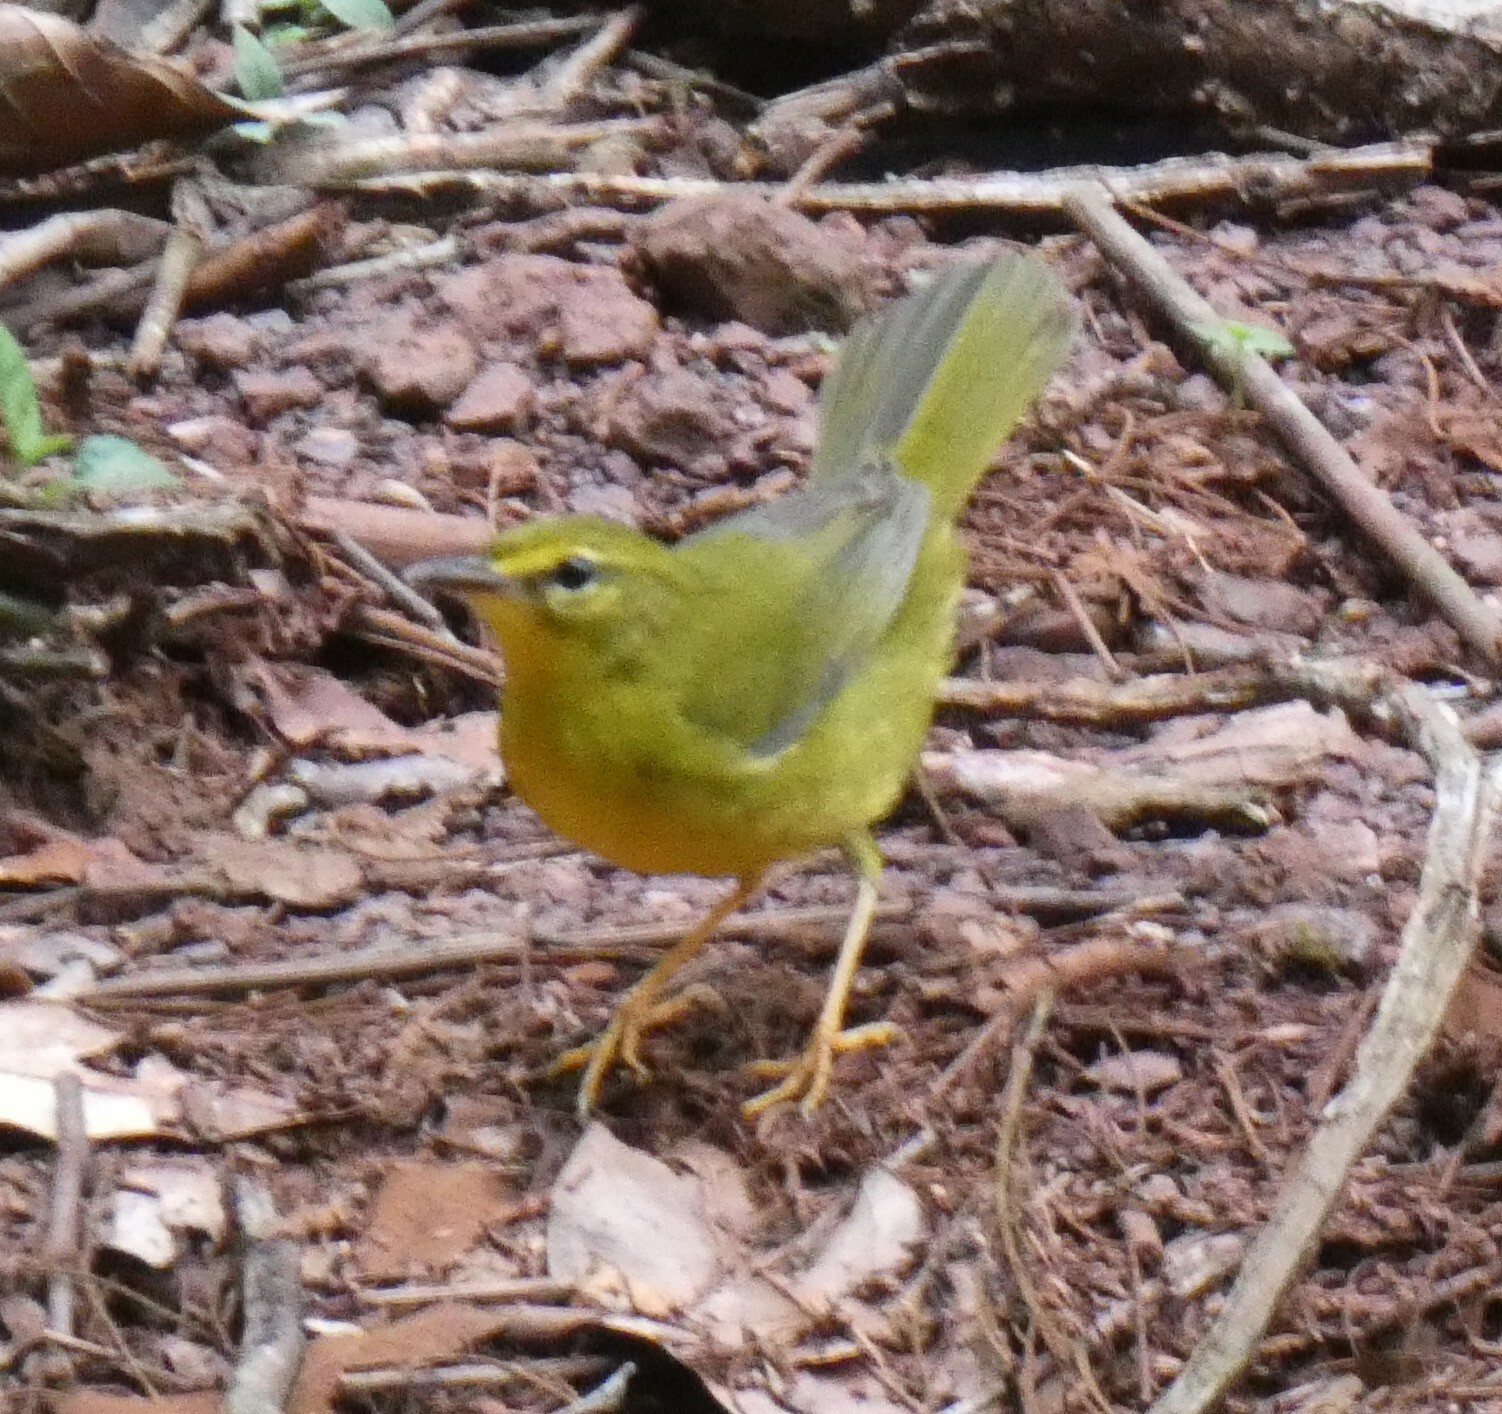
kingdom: Animalia
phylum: Chordata
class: Aves
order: Passeriformes
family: Parulidae
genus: Myiothlypis
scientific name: Myiothlypis flaveola
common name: Flavescent warbler
